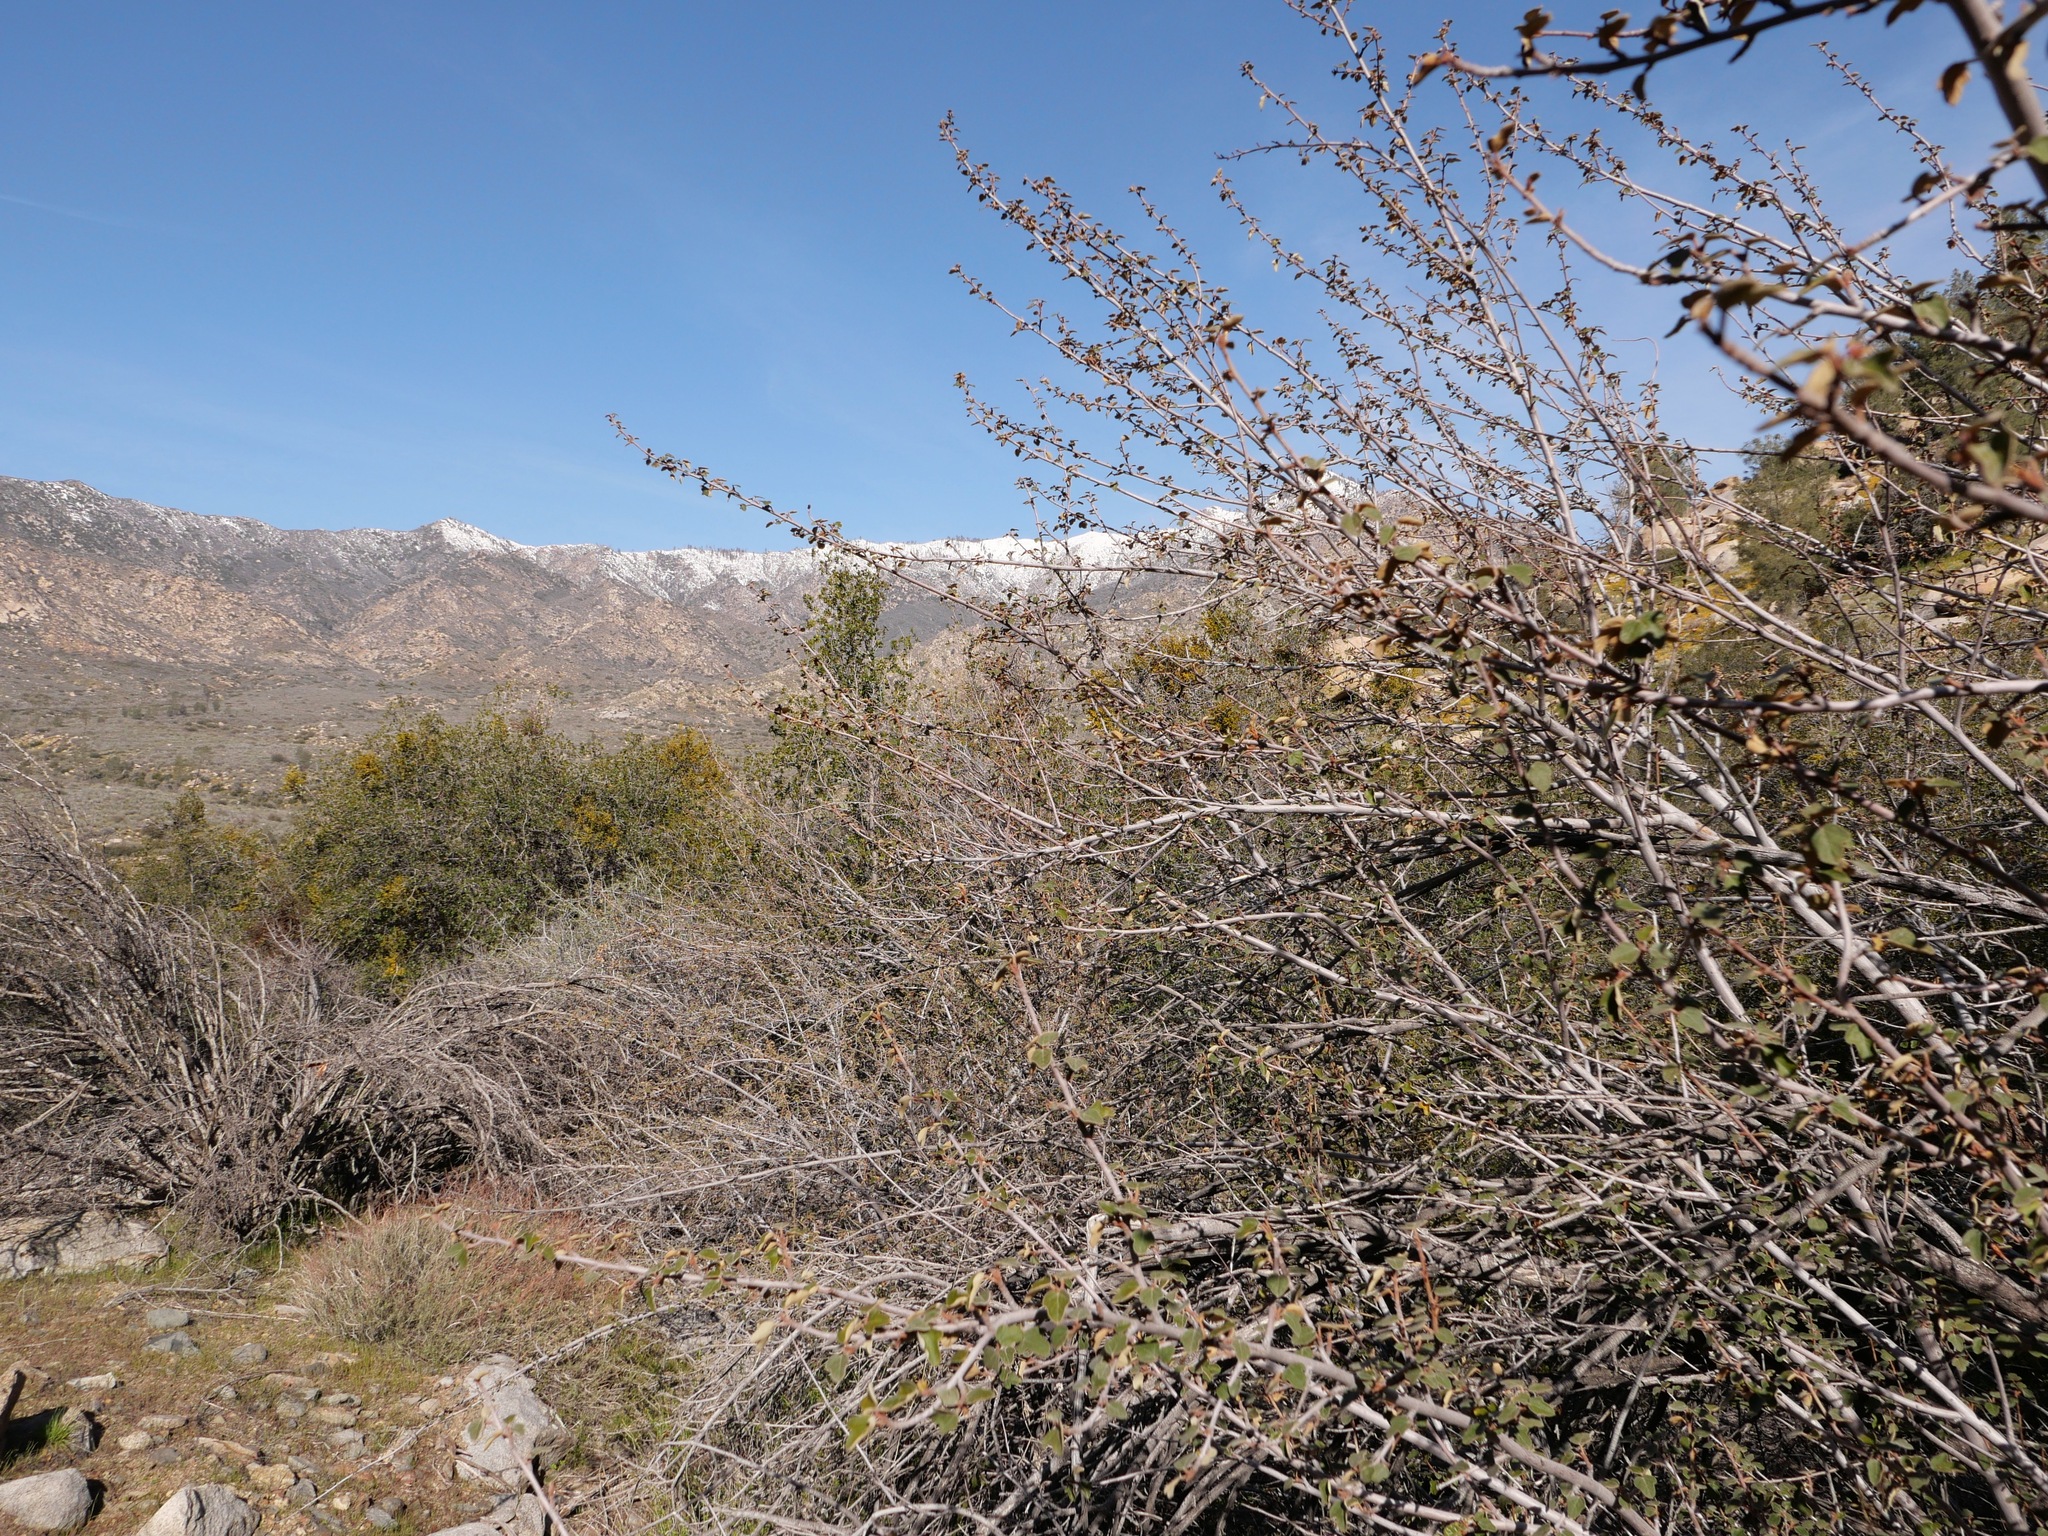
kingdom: Plantae
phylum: Tracheophyta
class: Magnoliopsida
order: Malvales
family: Malvaceae
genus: Fremontodendron
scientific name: Fremontodendron californicum
